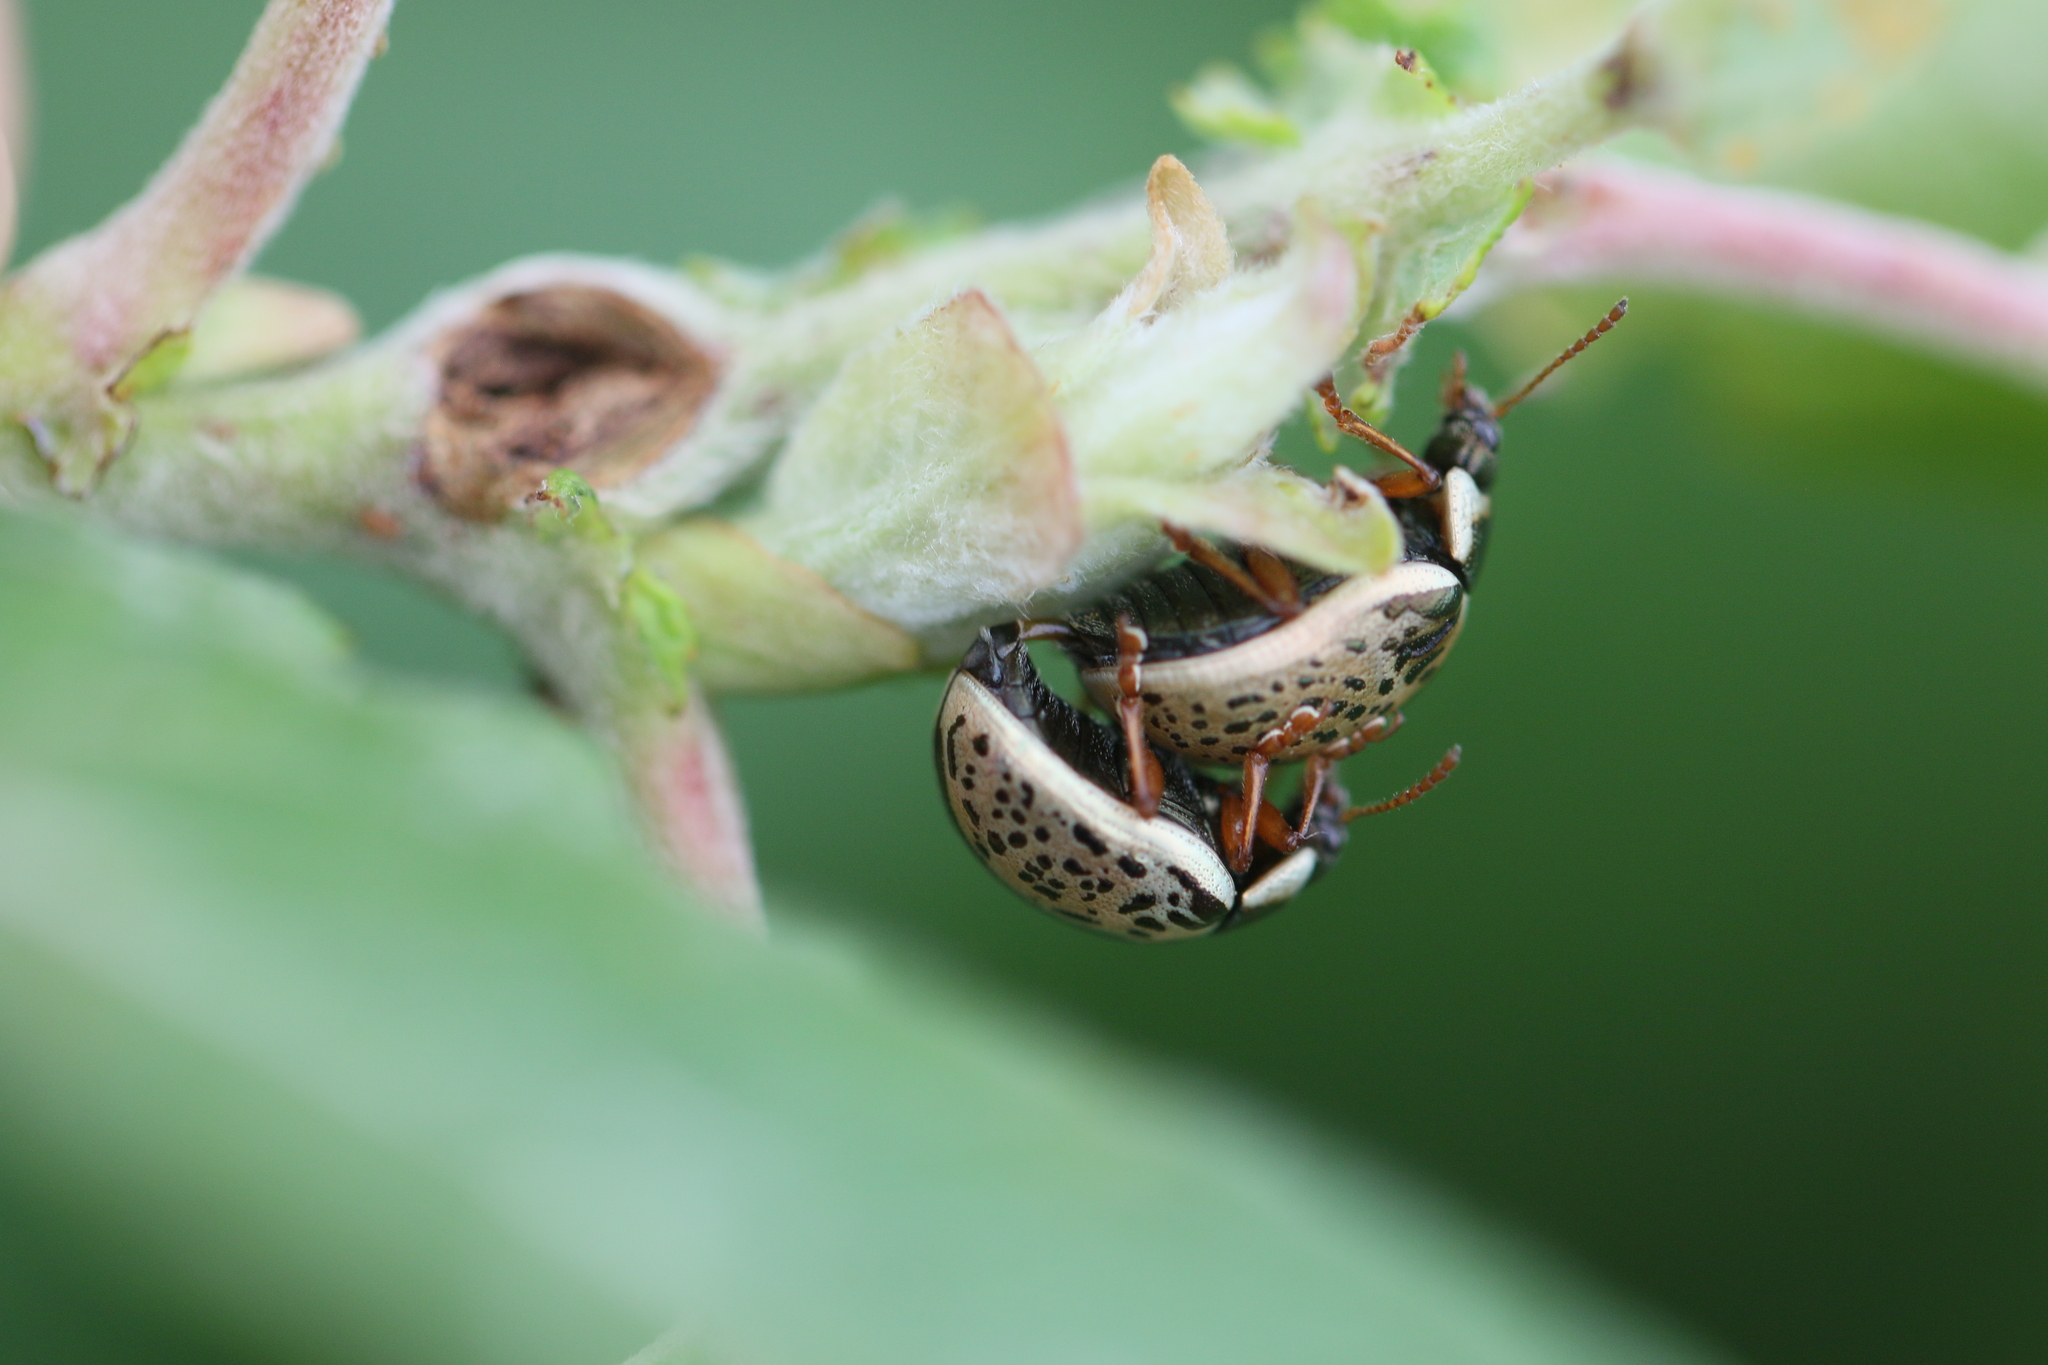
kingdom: Animalia
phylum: Arthropoda
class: Insecta
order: Coleoptera
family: Chrysomelidae
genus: Calligrapha
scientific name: Calligrapha multipunctata
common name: Common willow calligrapher beetle
